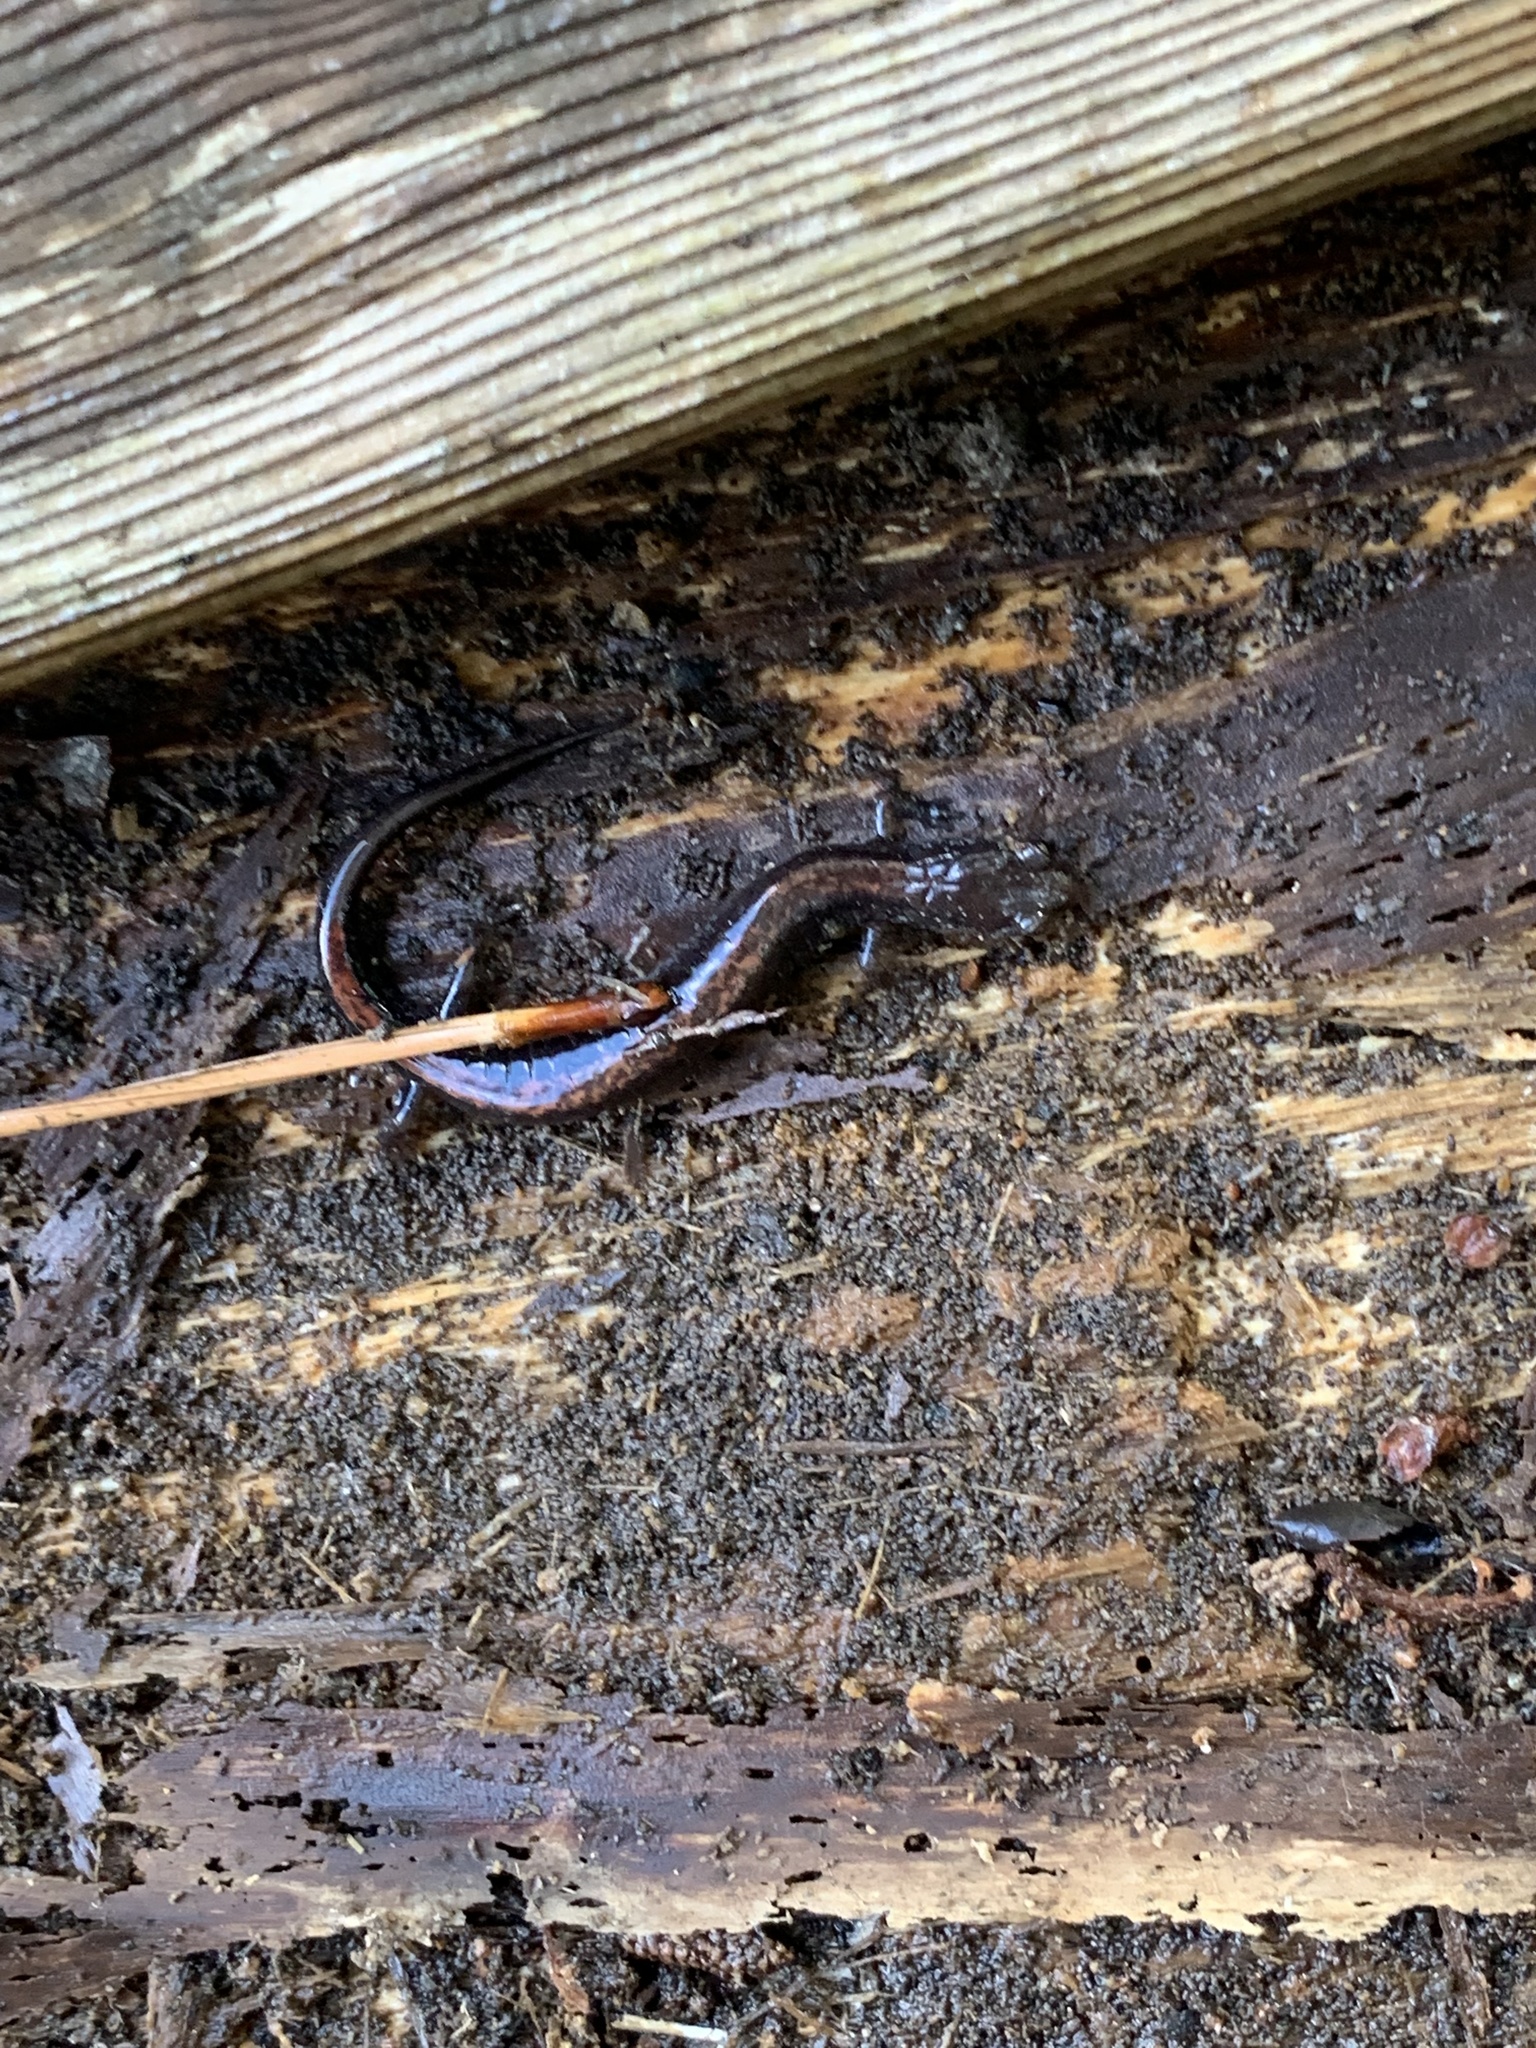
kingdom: Animalia
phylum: Chordata
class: Amphibia
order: Caudata
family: Plethodontidae
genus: Plethodon
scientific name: Plethodon cinereus
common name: Redback salamander
